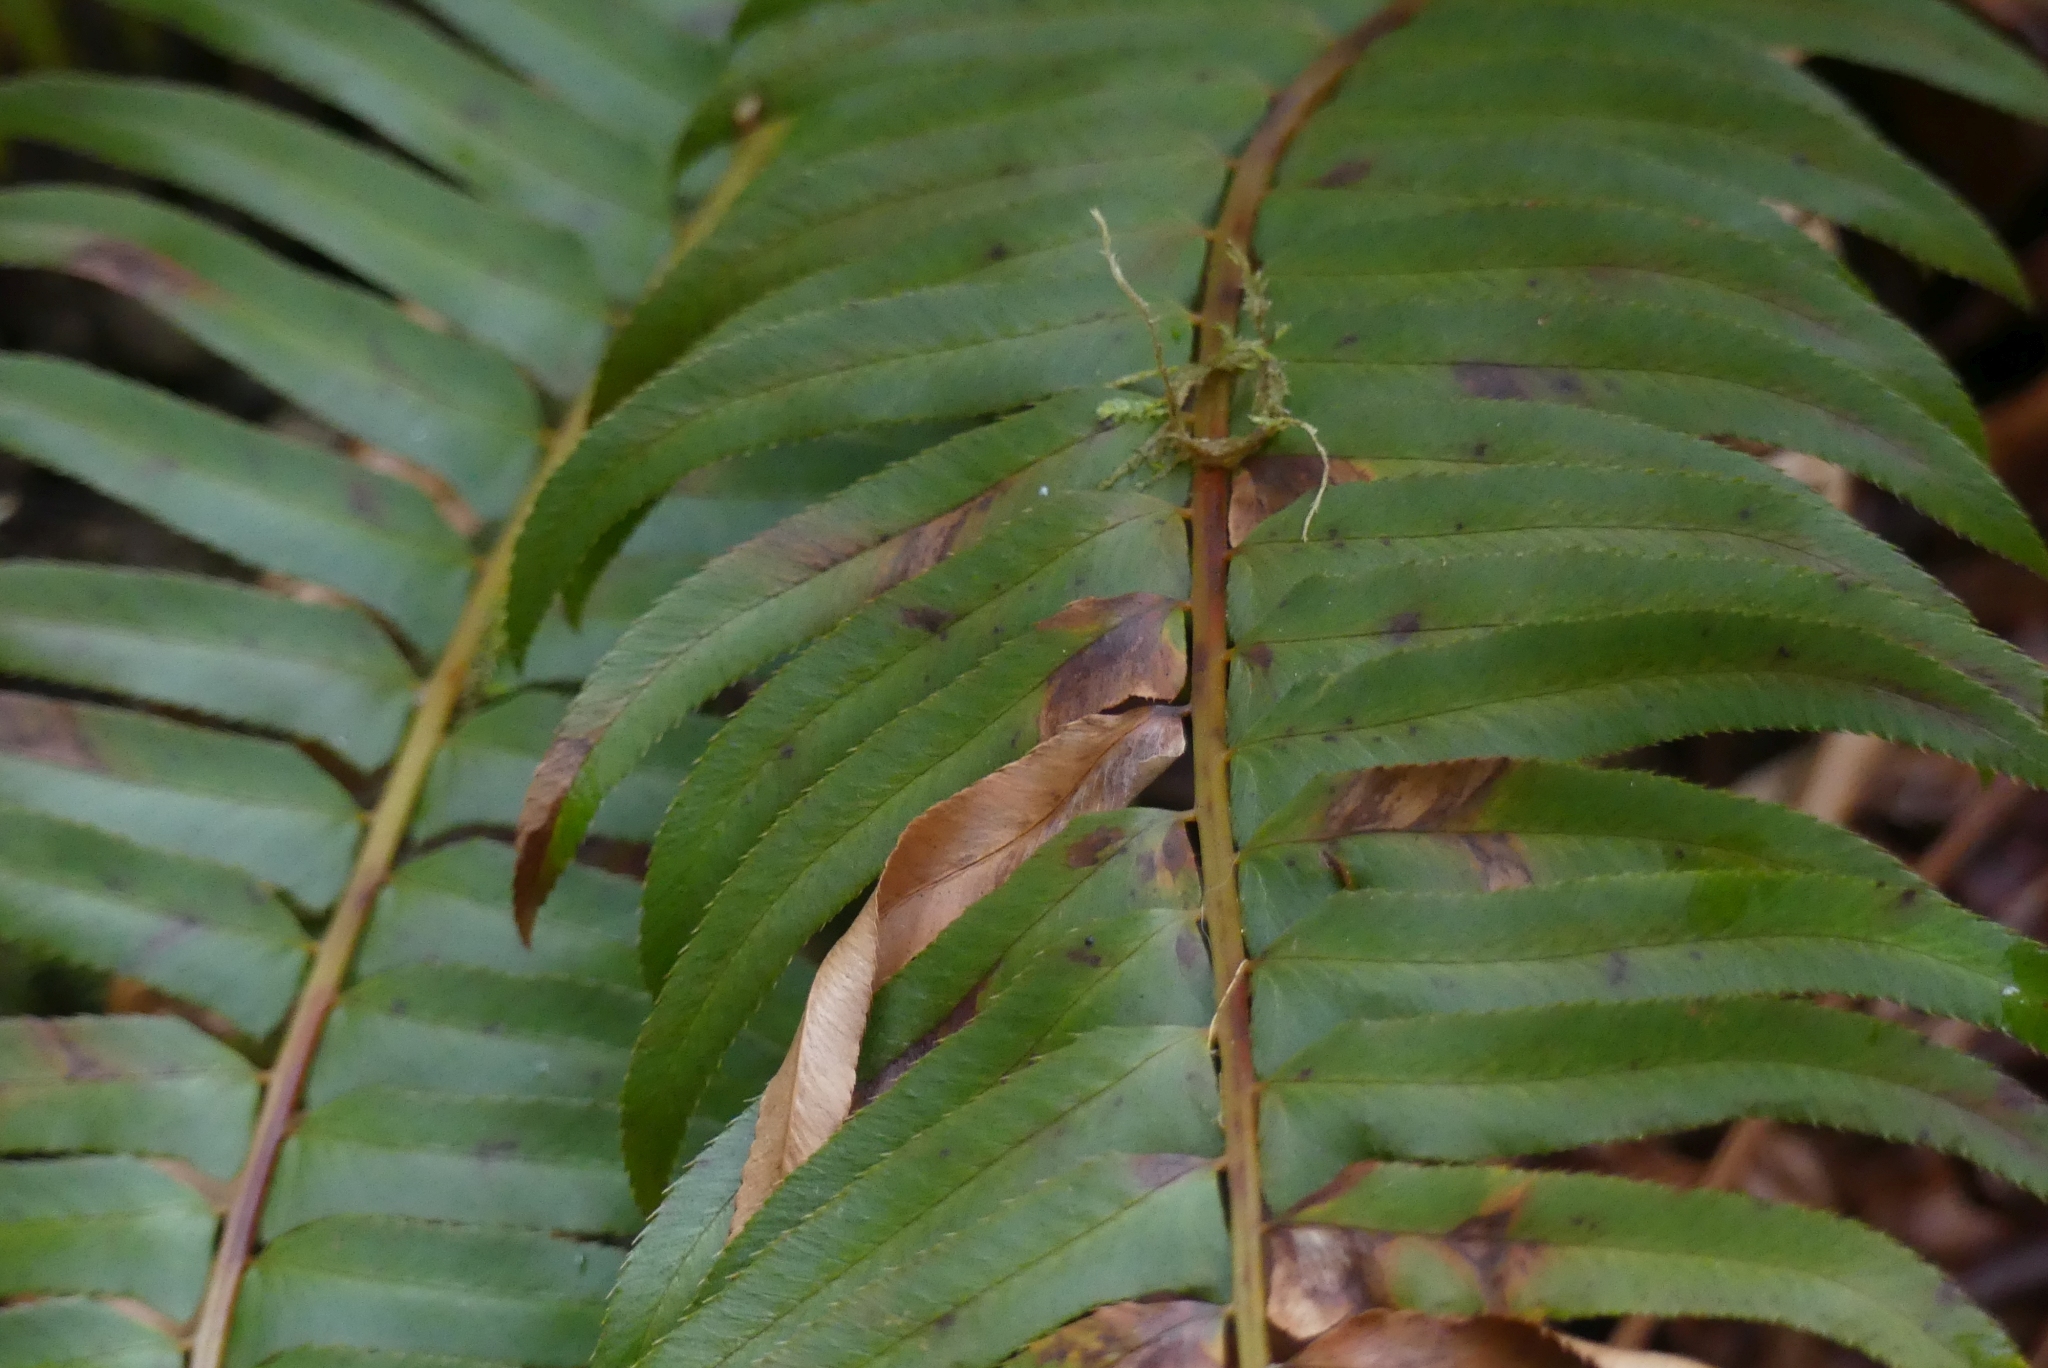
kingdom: Plantae
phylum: Tracheophyta
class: Polypodiopsida
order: Polypodiales
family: Dryopteridaceae
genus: Polystichum
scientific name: Polystichum munitum
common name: Western sword-fern
